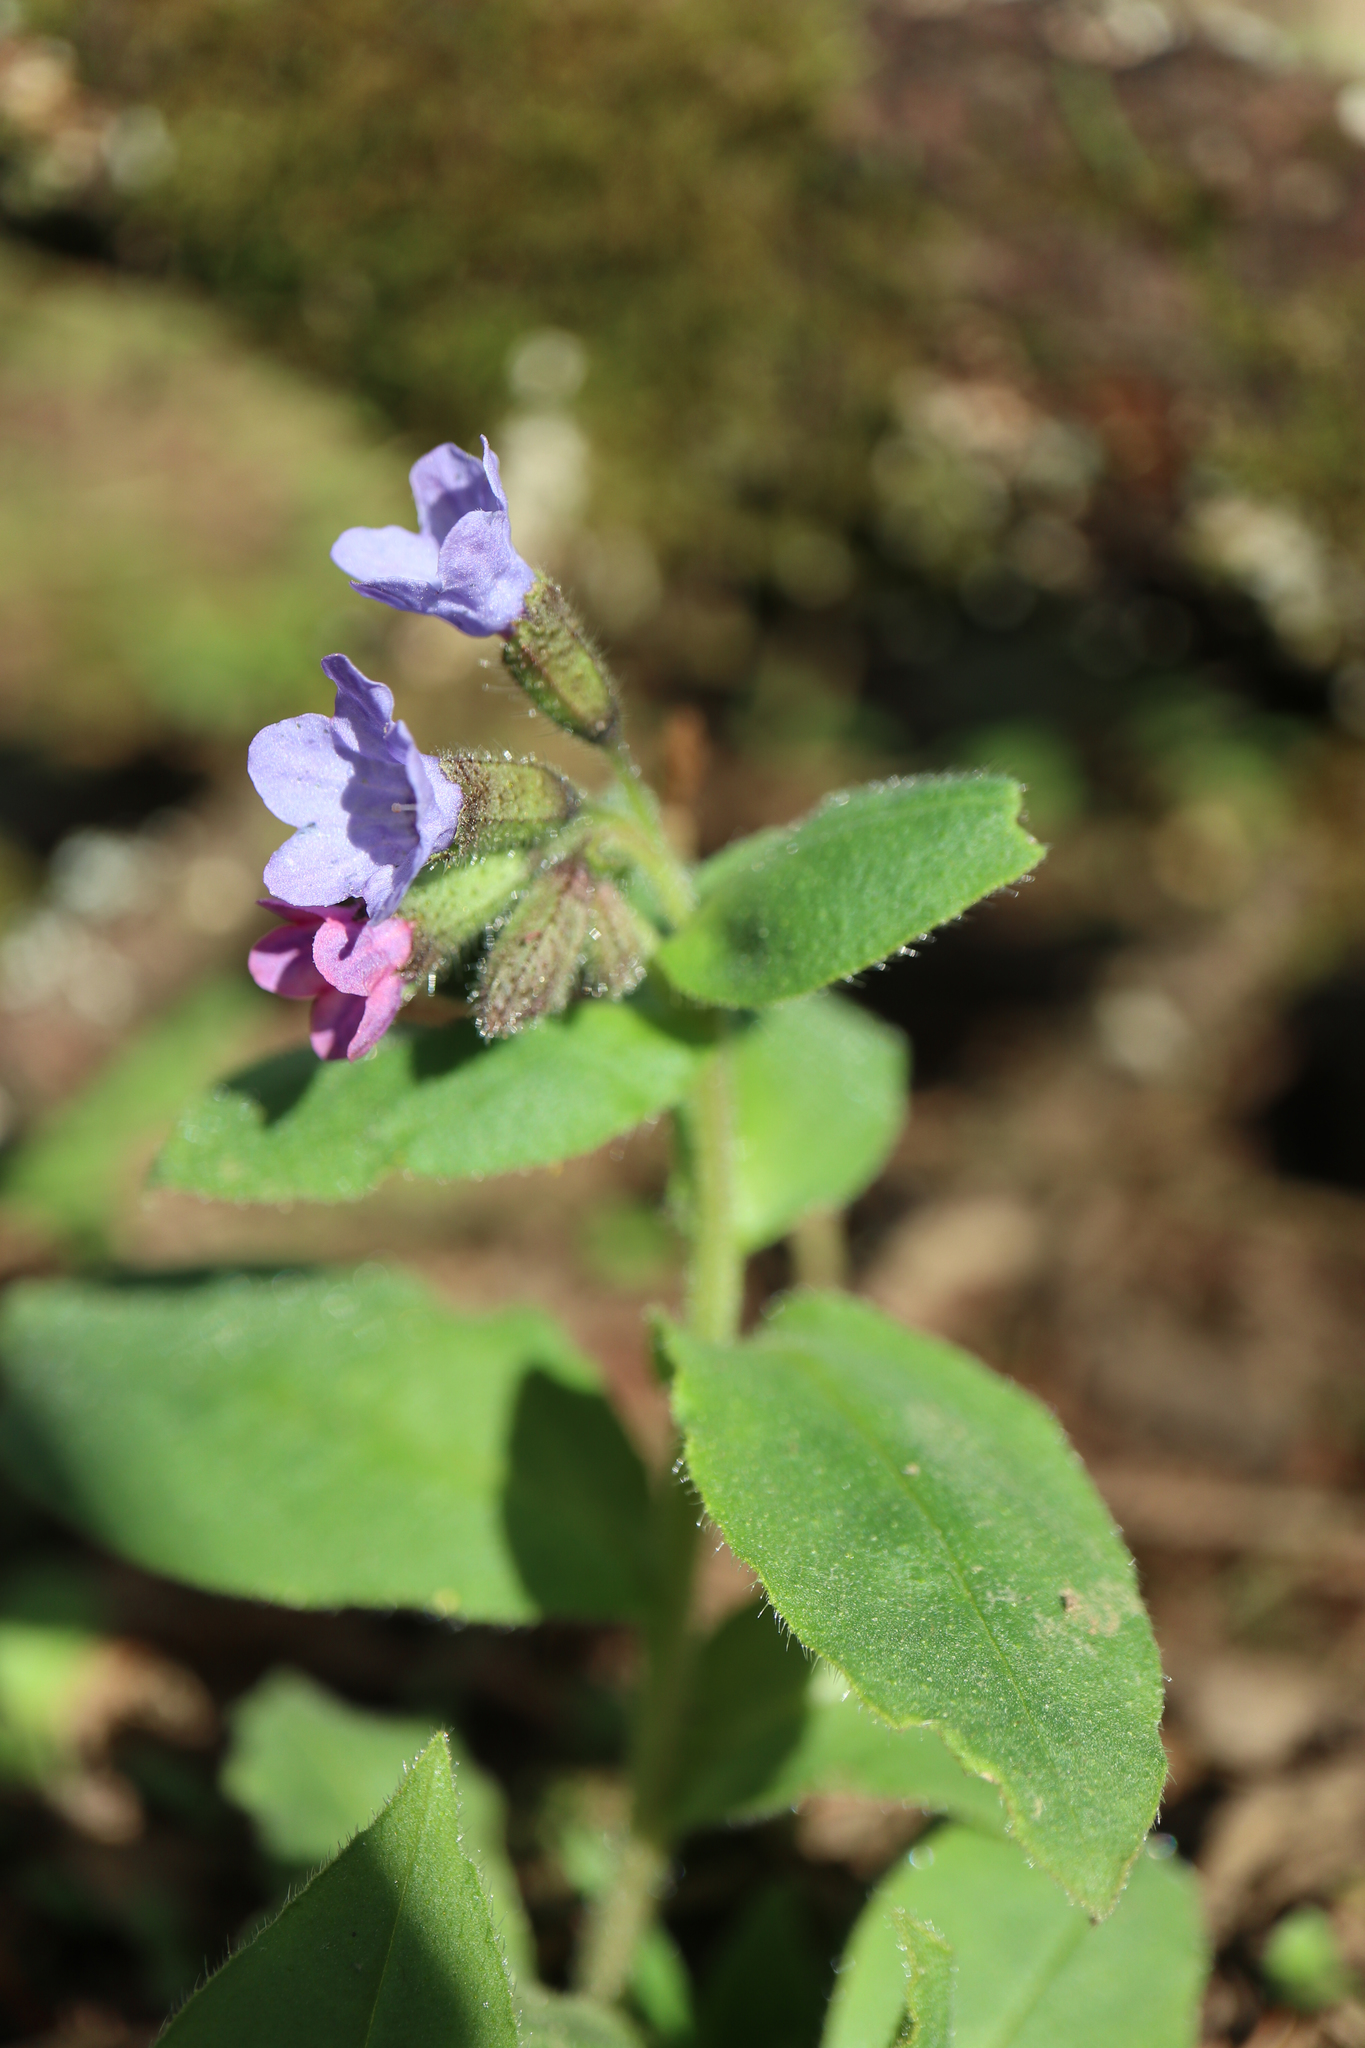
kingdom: Plantae
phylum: Tracheophyta
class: Magnoliopsida
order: Boraginales
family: Boraginaceae
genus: Pulmonaria
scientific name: Pulmonaria obscura
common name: Suffolk lungwort
